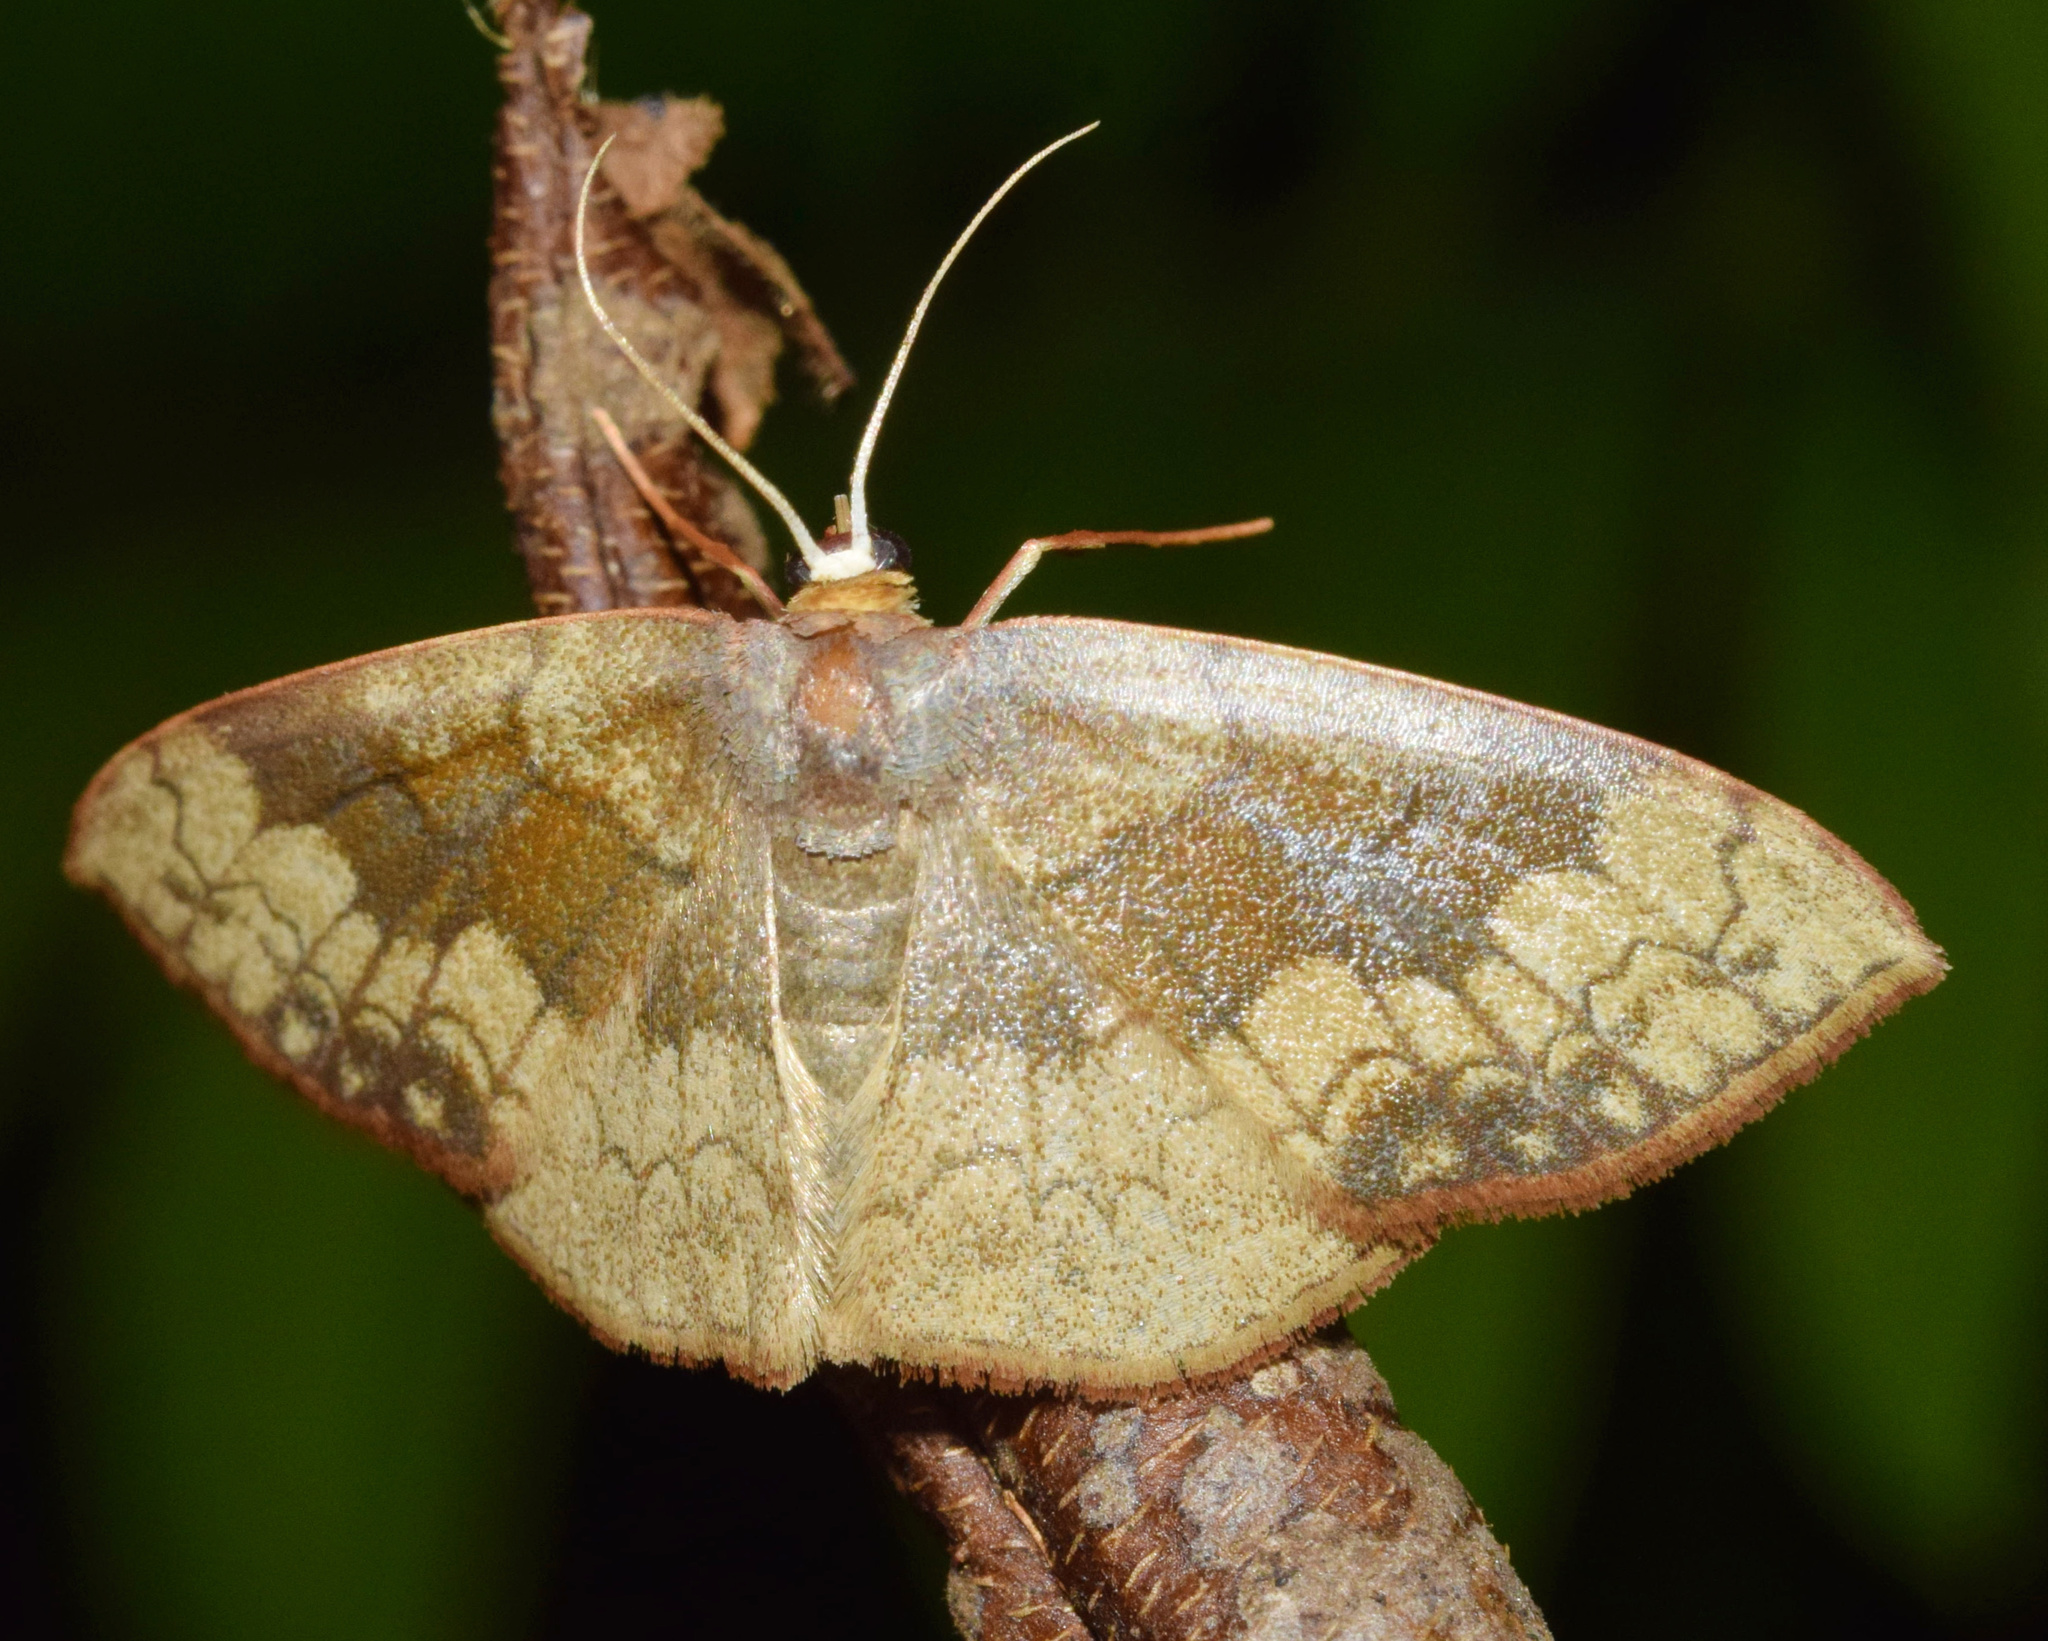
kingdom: Animalia
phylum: Arthropoda
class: Insecta
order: Lepidoptera
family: Geometridae
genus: Epicosymbia
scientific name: Epicosymbia nitidata
